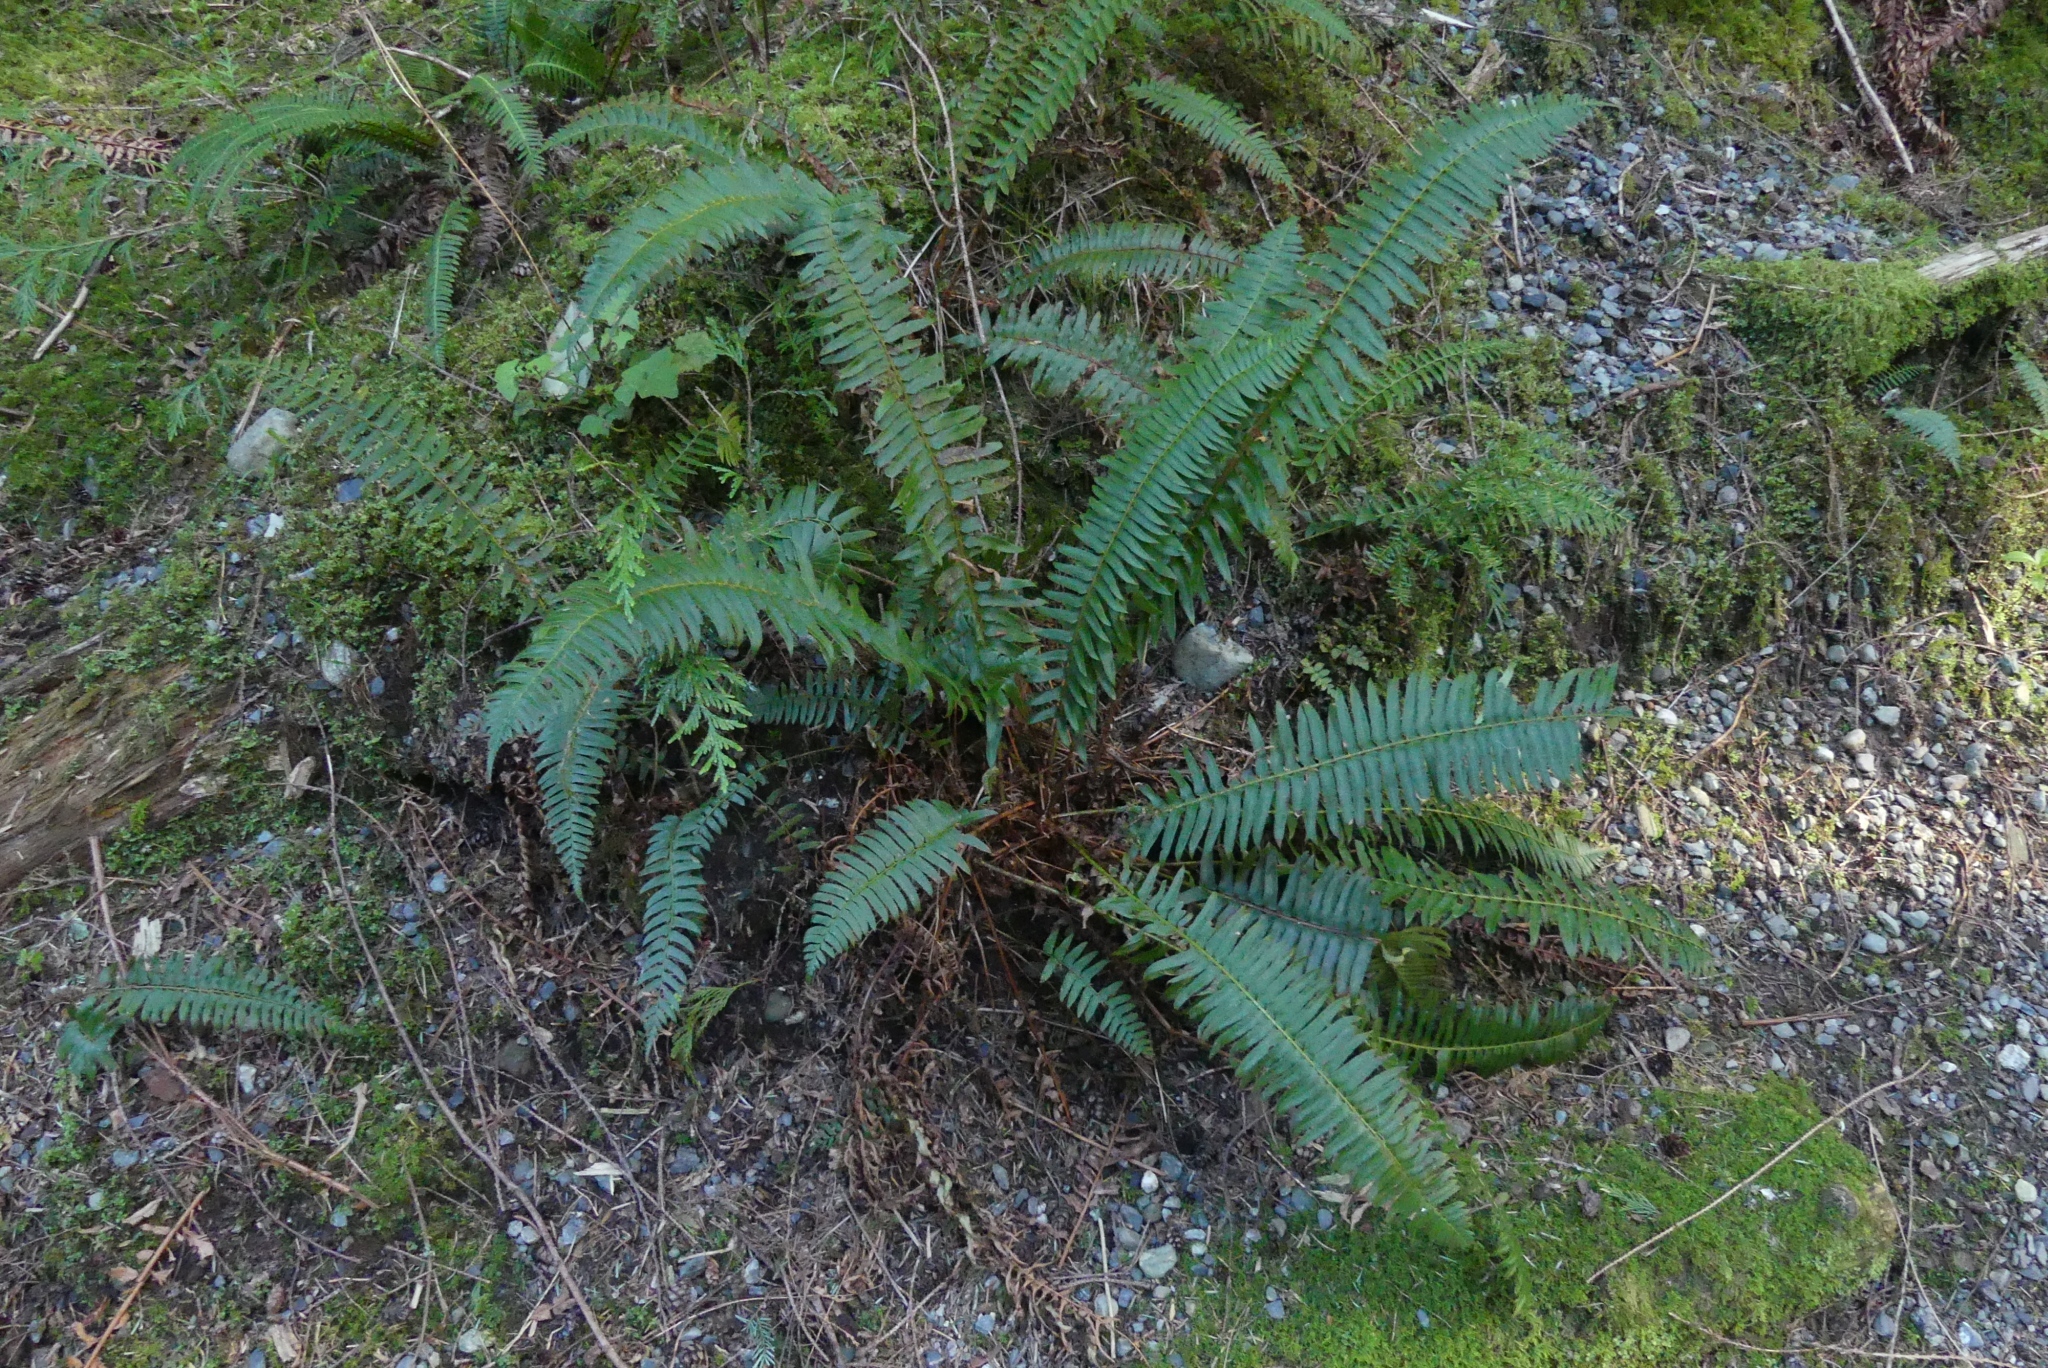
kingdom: Plantae
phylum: Tracheophyta
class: Polypodiopsida
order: Polypodiales
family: Dryopteridaceae
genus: Polystichum
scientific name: Polystichum munitum
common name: Western sword-fern
